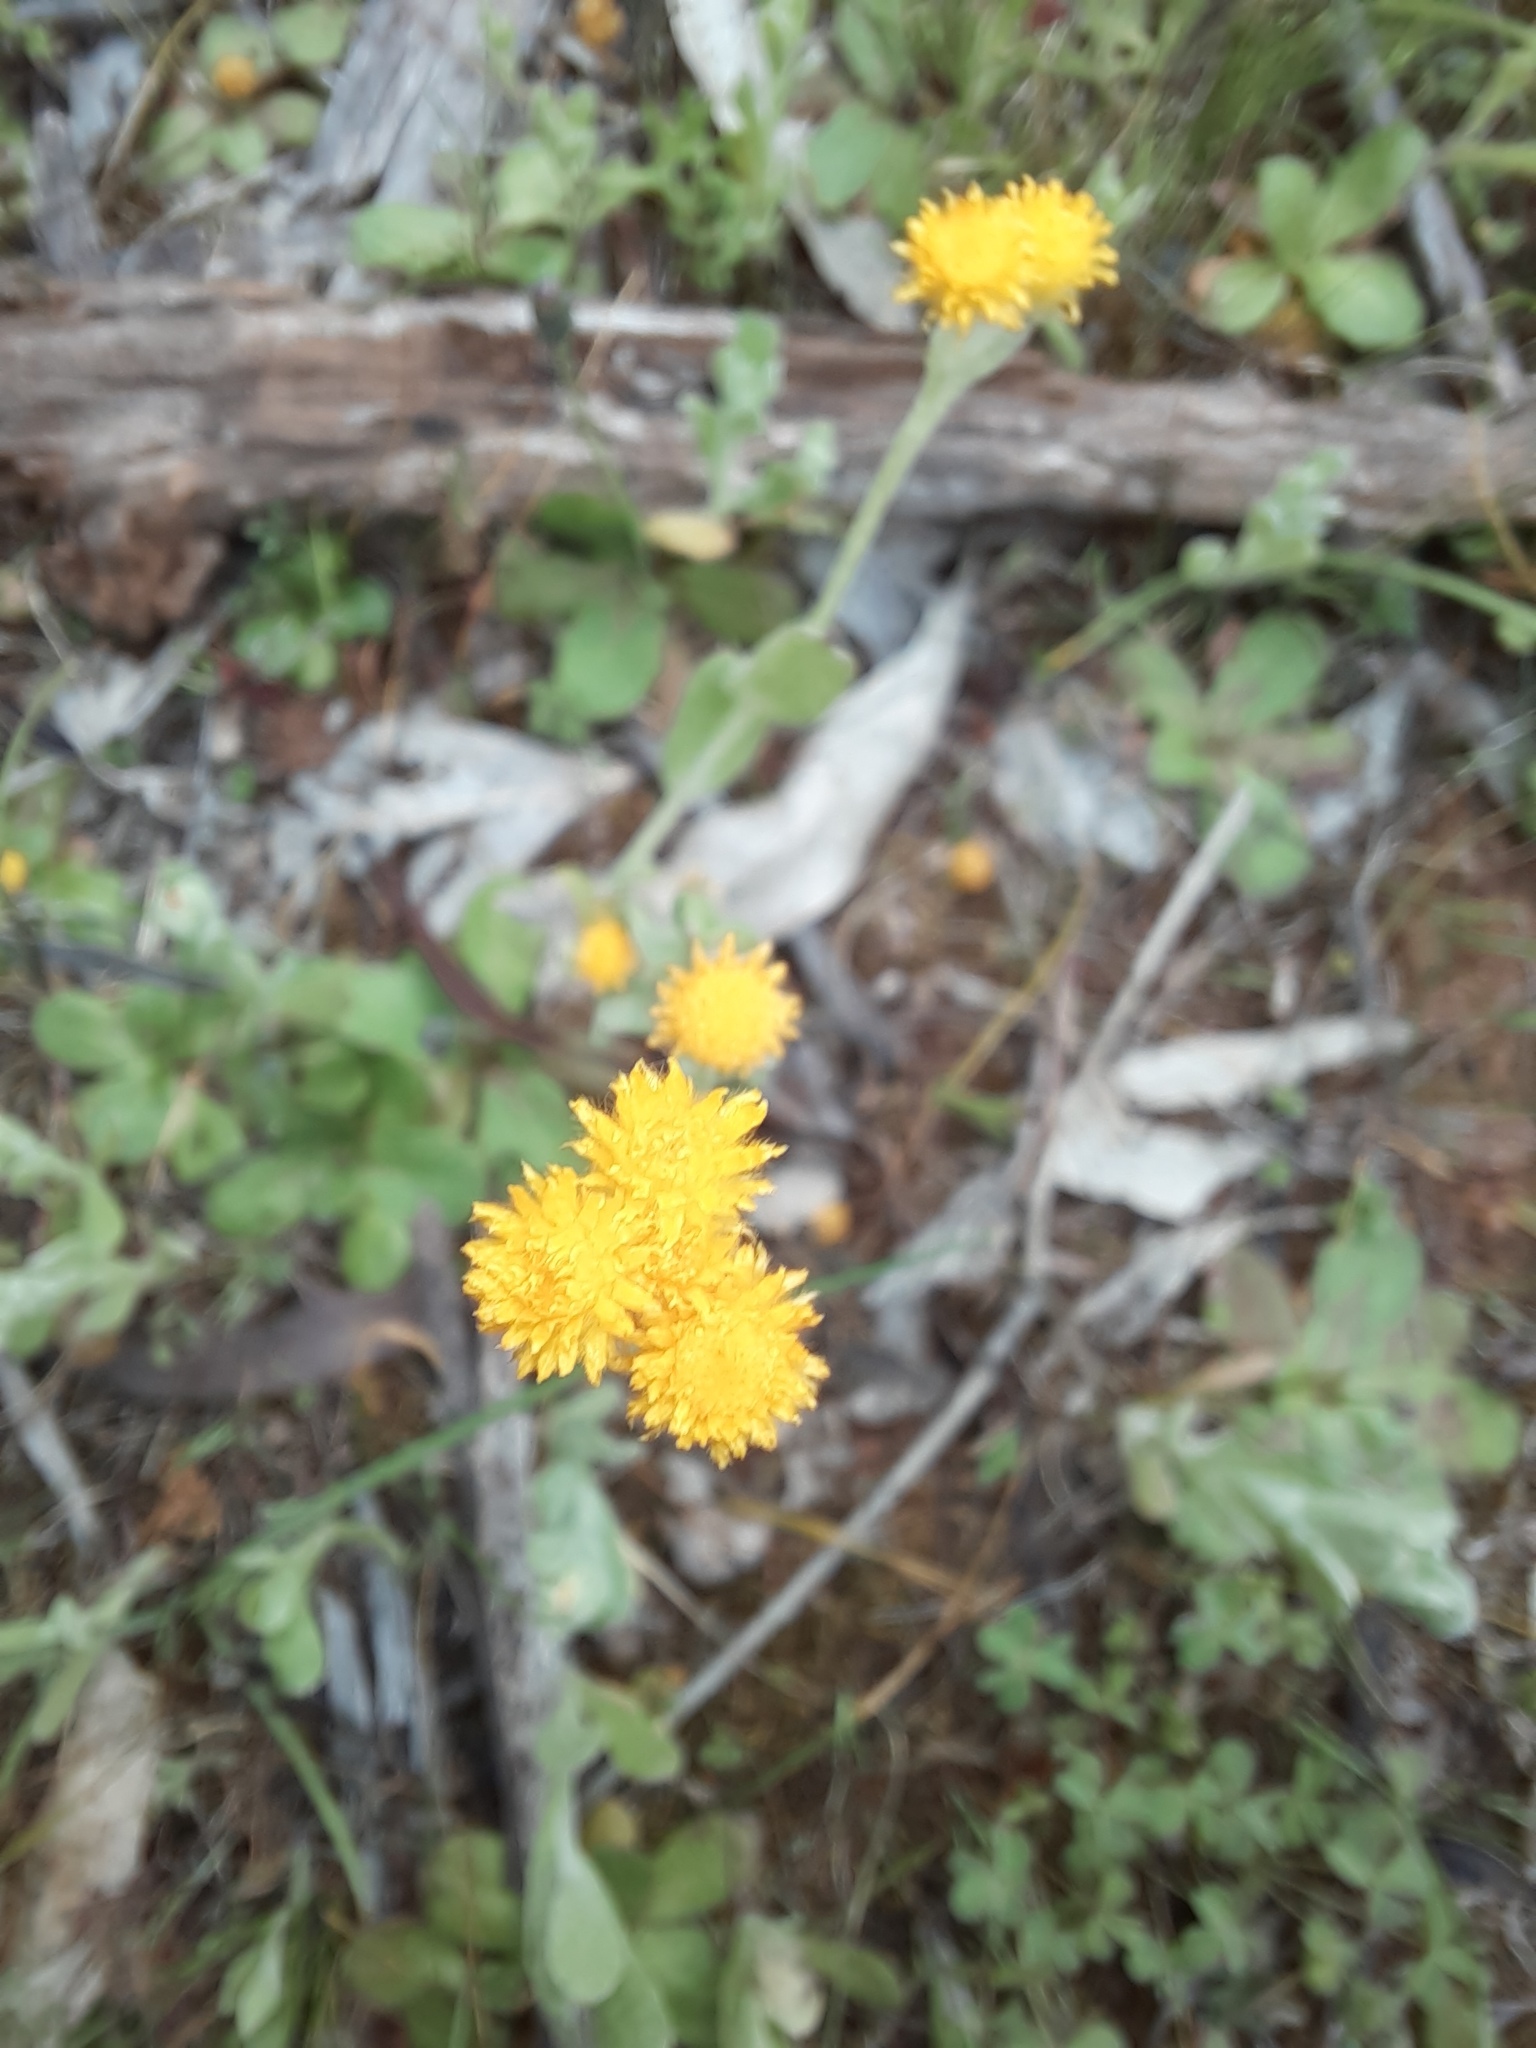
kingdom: Plantae
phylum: Tracheophyta
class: Magnoliopsida
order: Asterales
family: Asteraceae
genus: Chrysocephalum
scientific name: Chrysocephalum apiculatum
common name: Common everlasting
